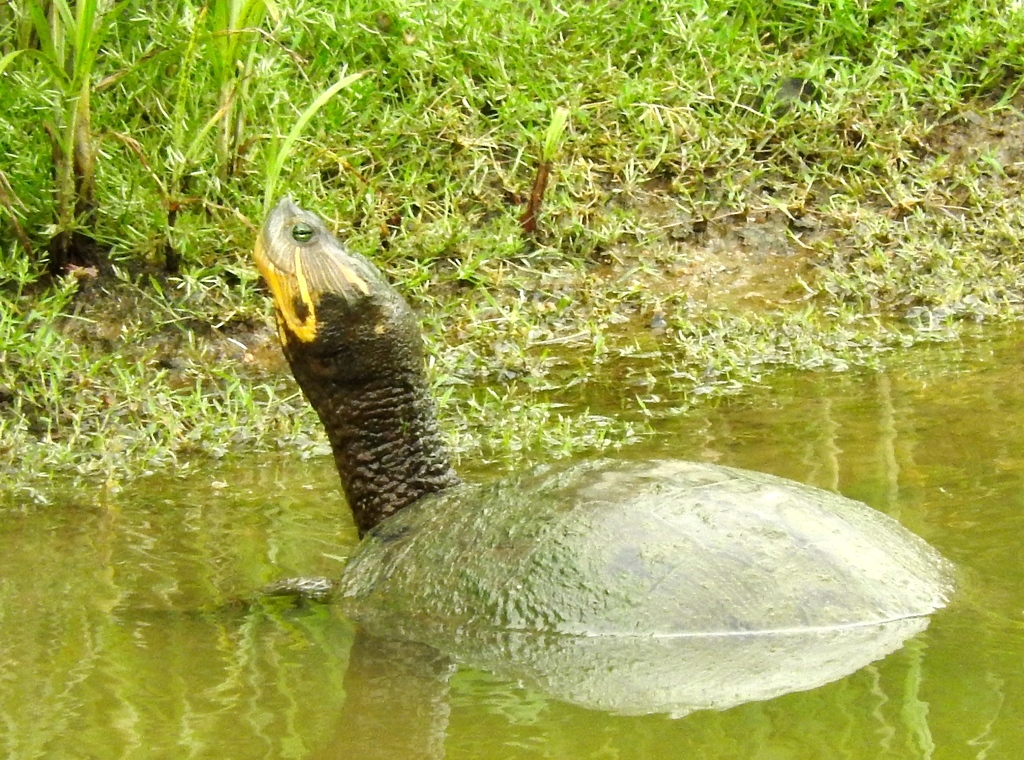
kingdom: Animalia
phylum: Chordata
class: Testudines
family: Emydidae
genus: Trachemys
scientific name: Trachemys ornata
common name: Ornate slider
